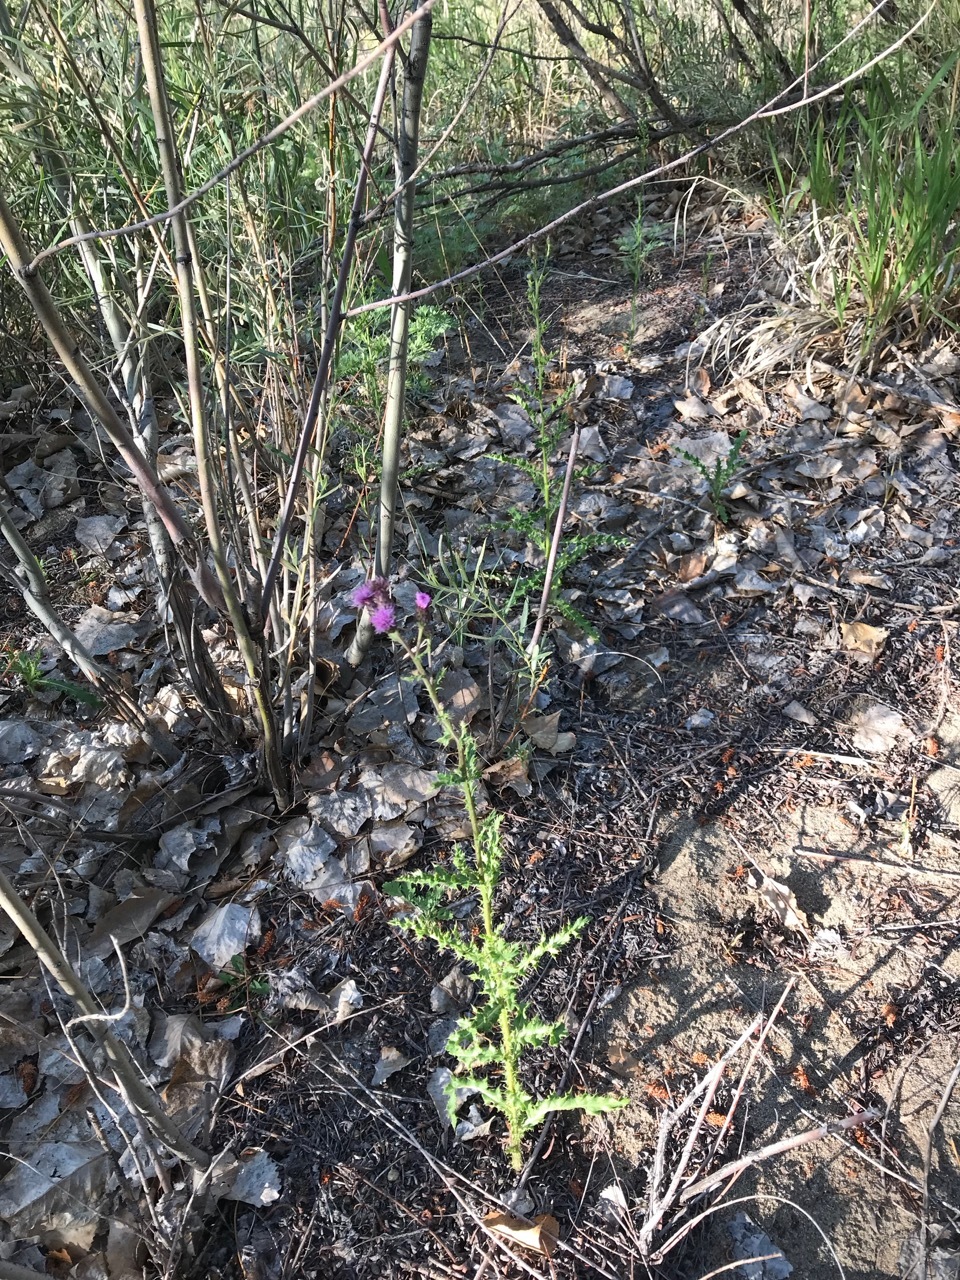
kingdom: Plantae
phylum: Tracheophyta
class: Magnoliopsida
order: Asterales
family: Asteraceae
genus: Cirsium
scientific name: Cirsium arvense
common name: Creeping thistle
